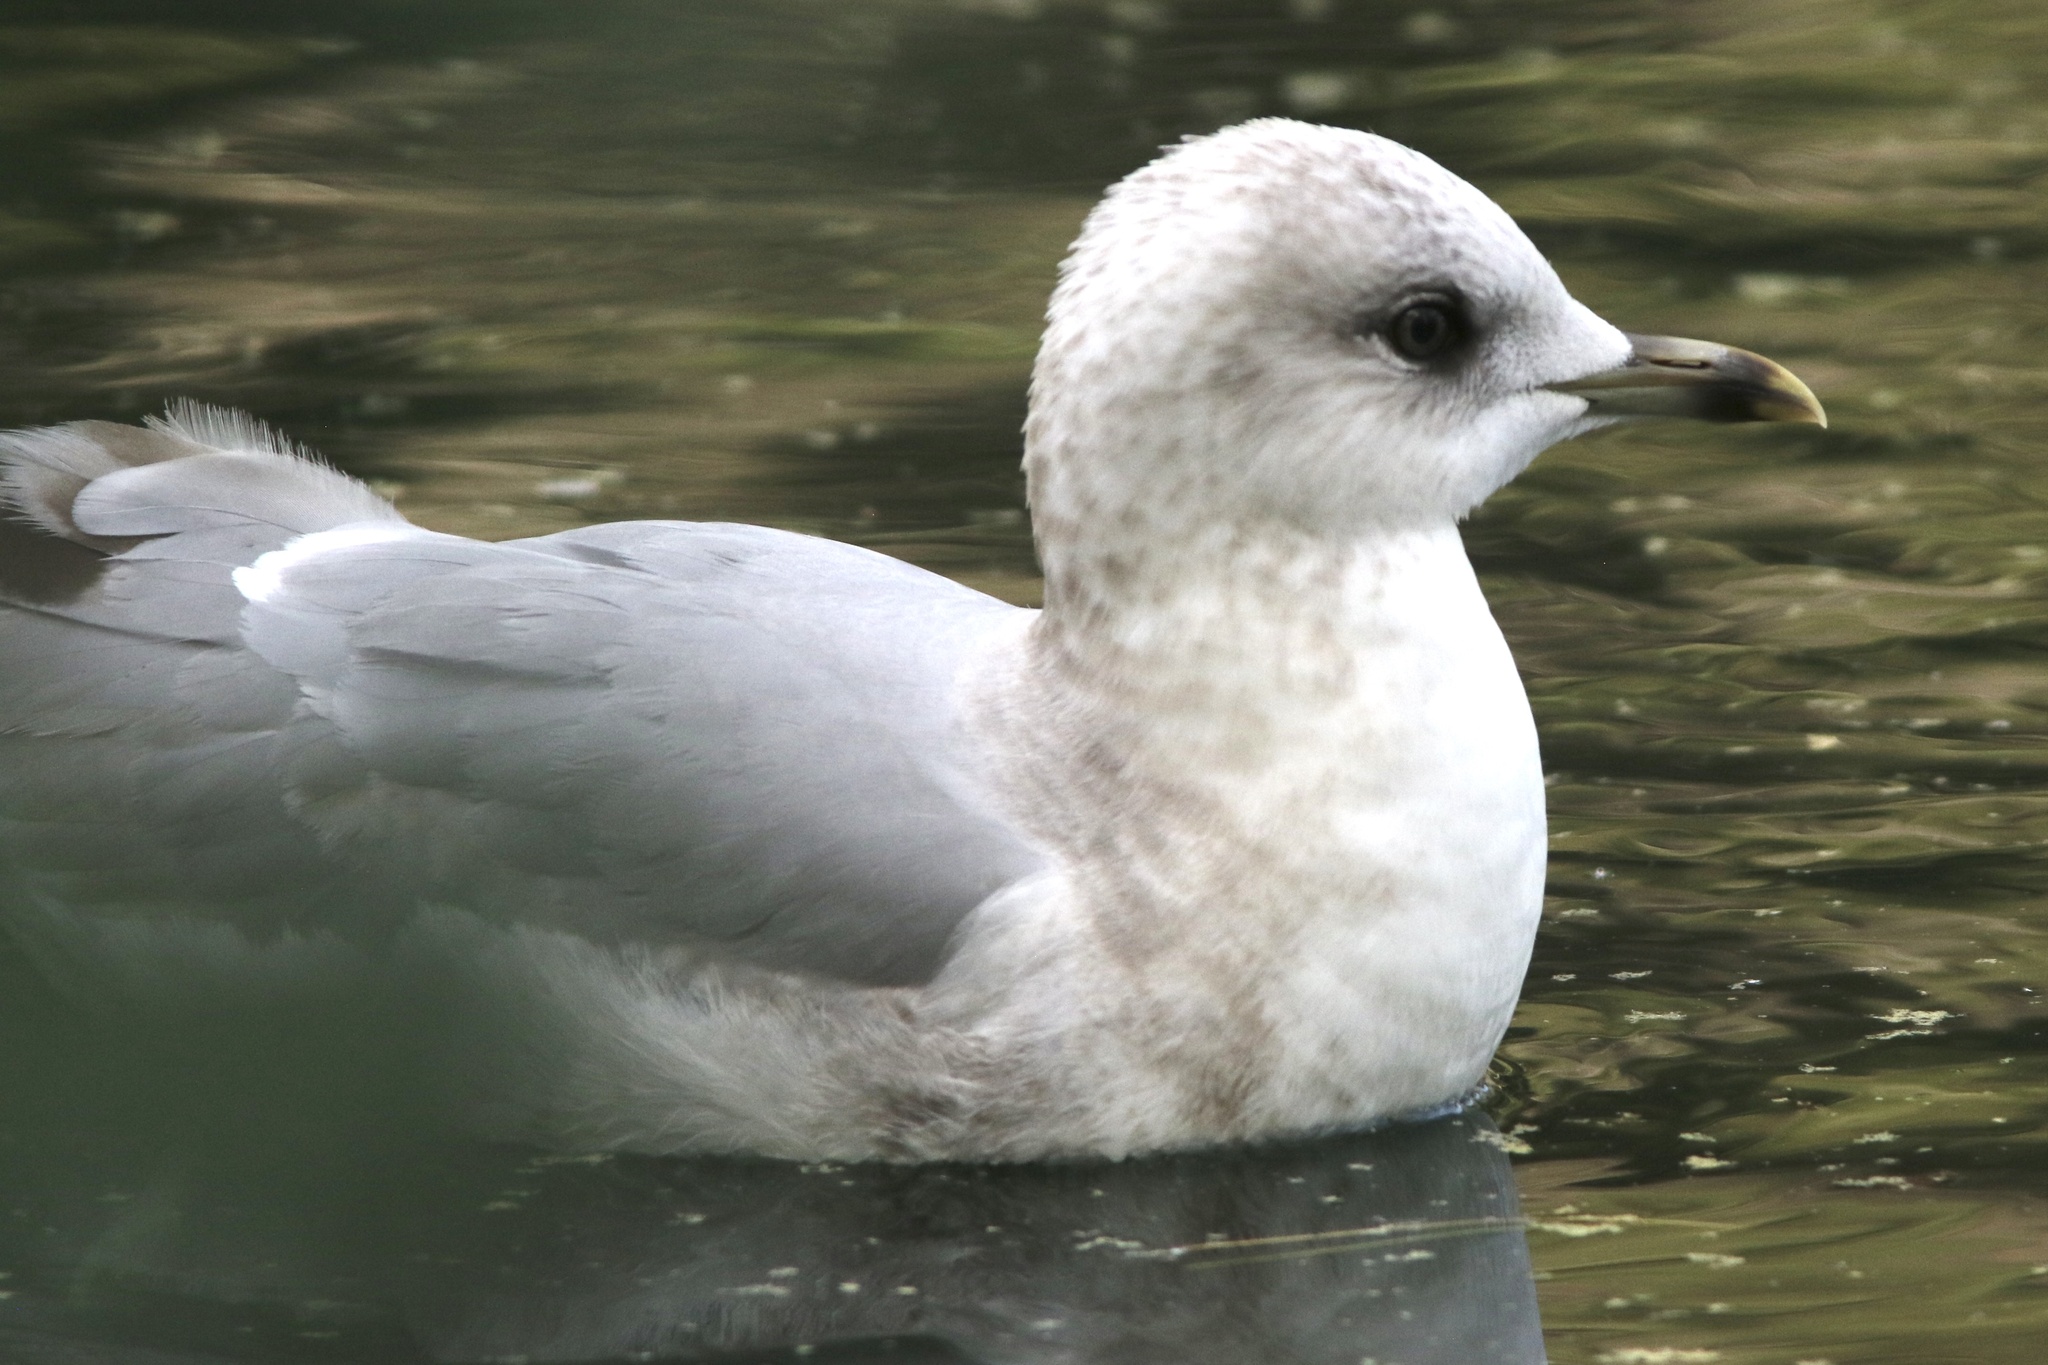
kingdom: Animalia
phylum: Chordata
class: Aves
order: Charadriiformes
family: Laridae
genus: Larus
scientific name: Larus brachyrhynchus
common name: Short-billed gull
